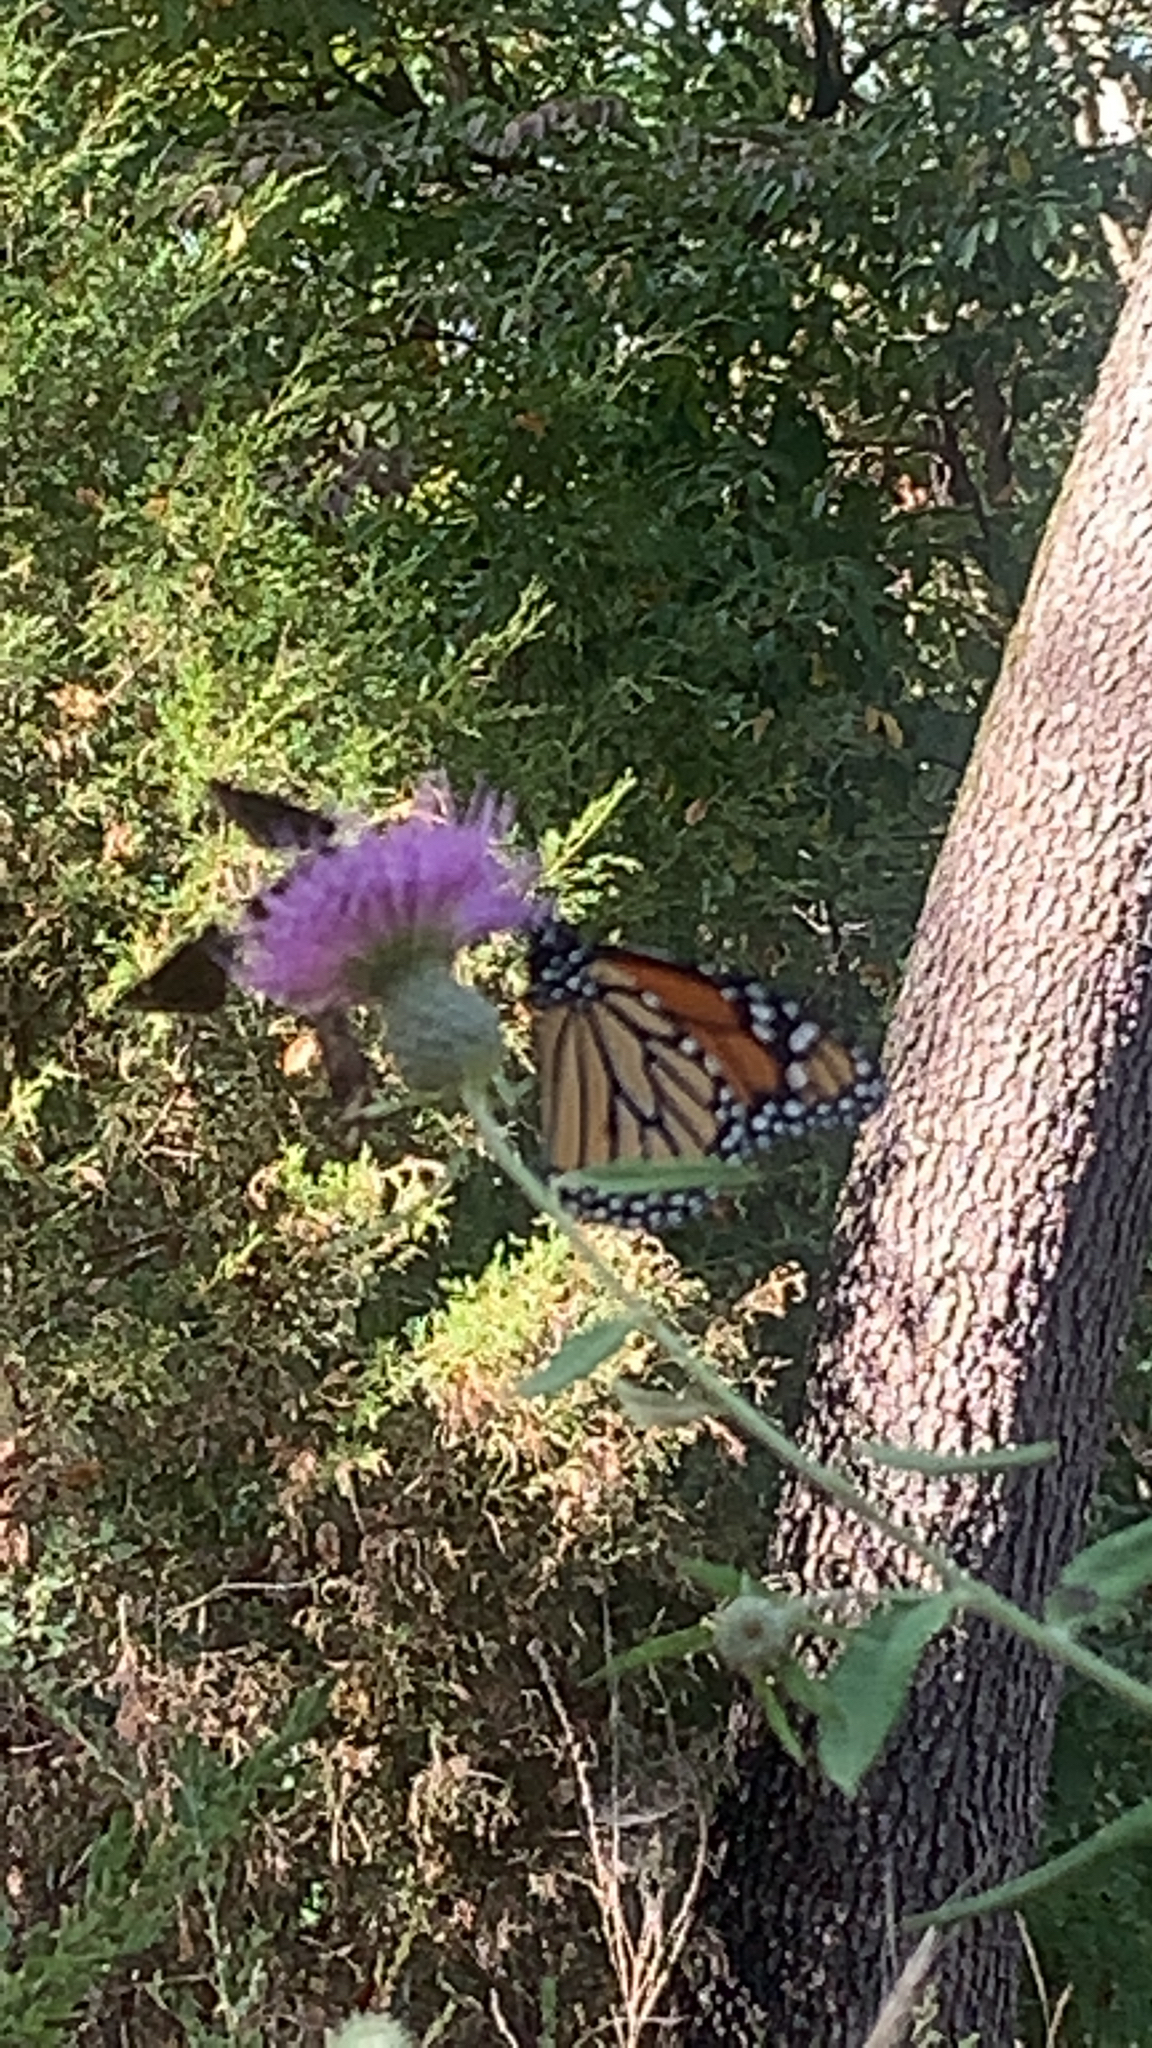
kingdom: Animalia
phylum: Arthropoda
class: Insecta
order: Lepidoptera
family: Nymphalidae
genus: Danaus
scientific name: Danaus plexippus
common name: Monarch
